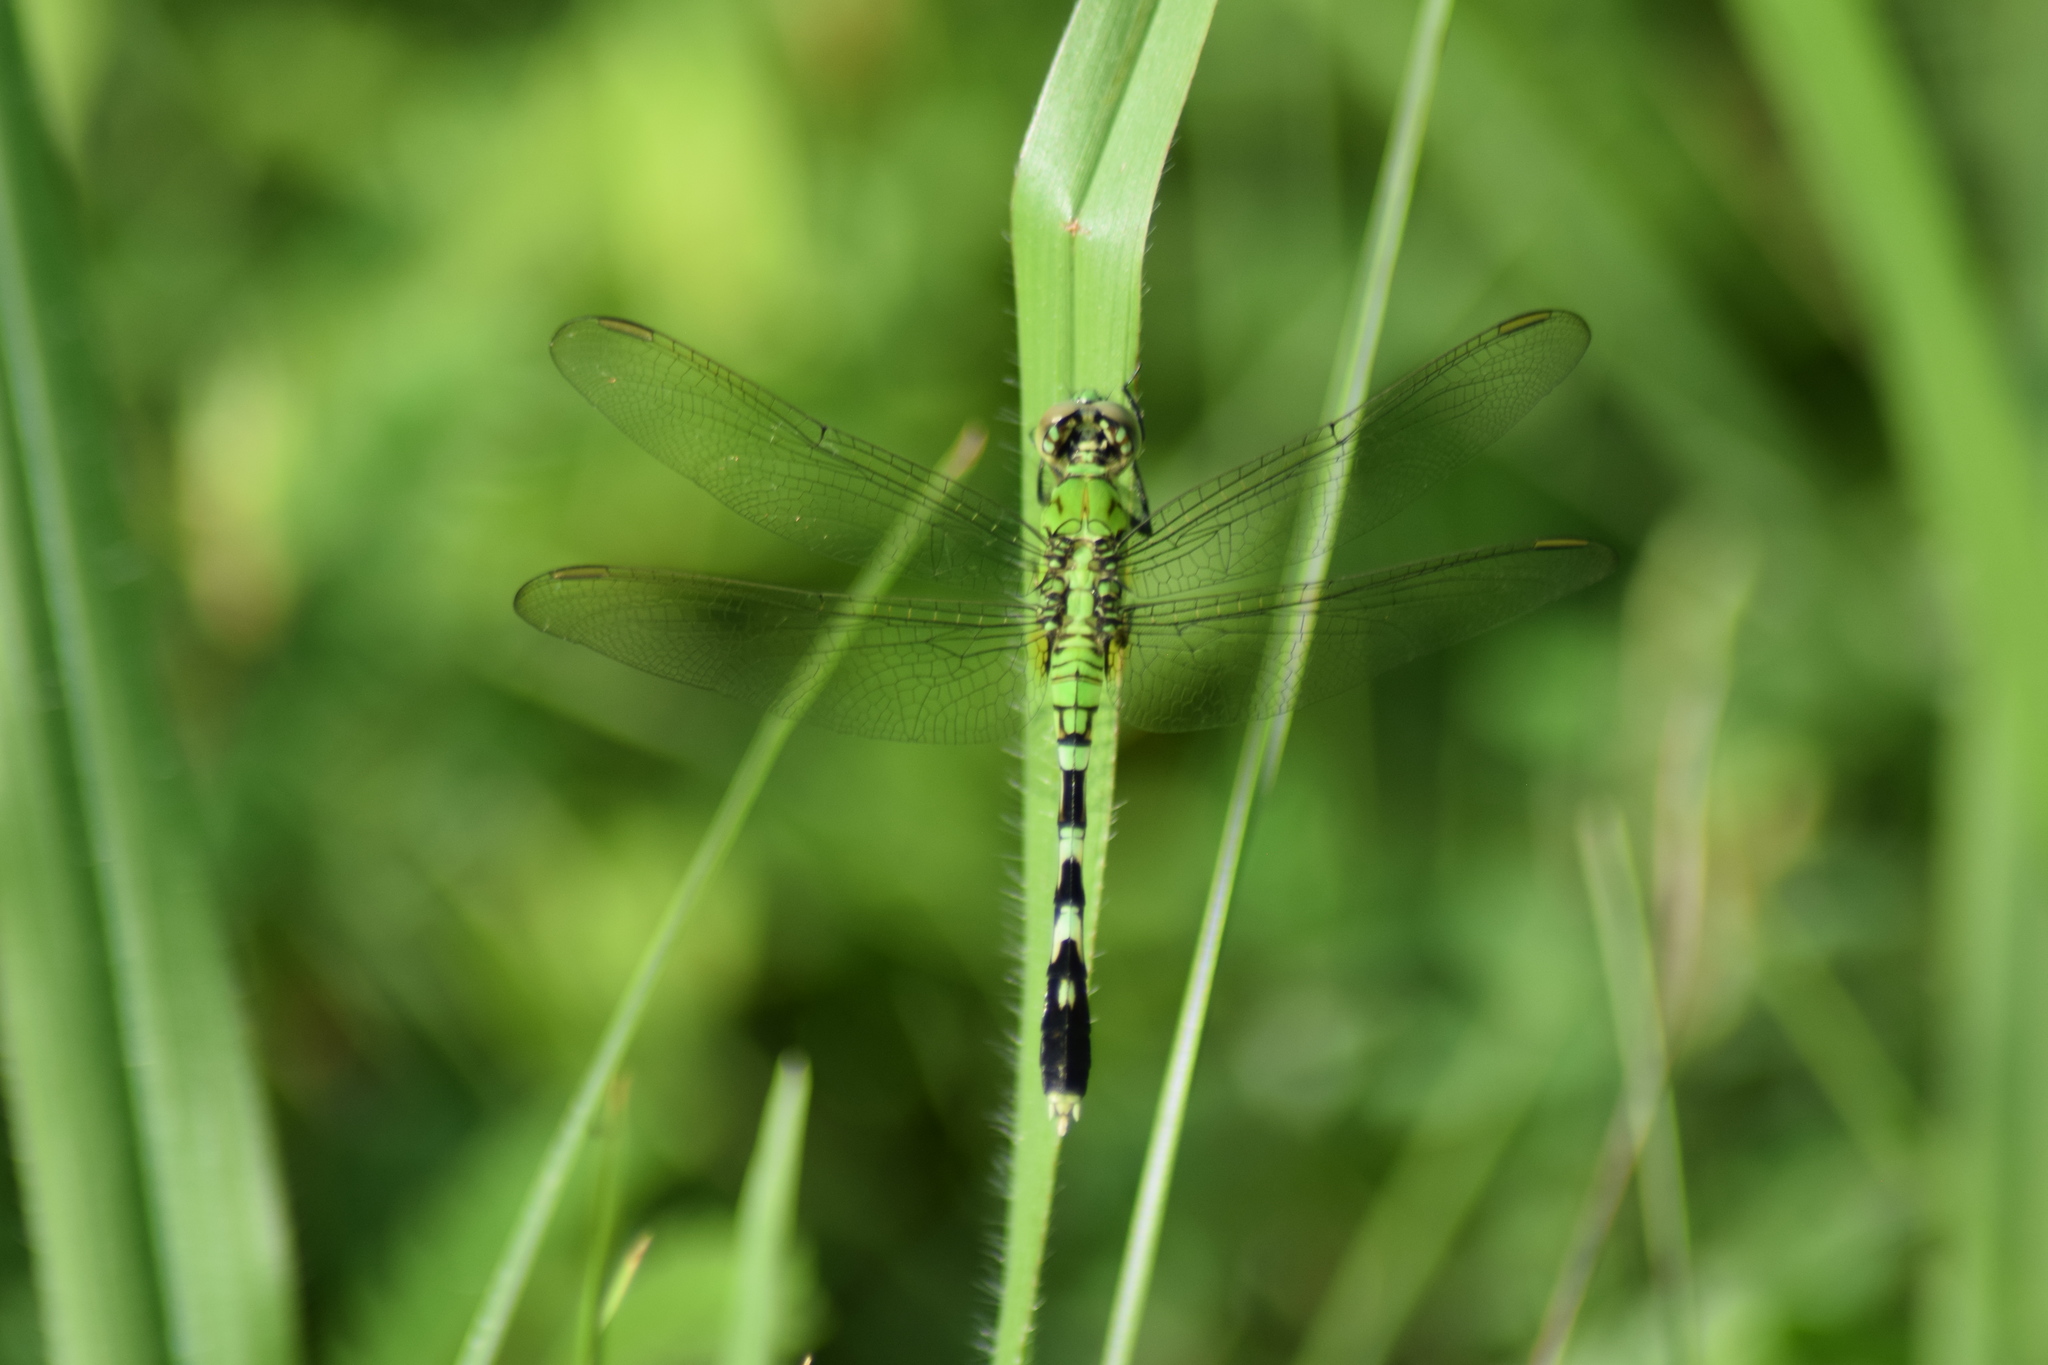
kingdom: Animalia
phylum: Arthropoda
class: Insecta
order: Odonata
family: Libellulidae
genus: Erythemis
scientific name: Erythemis simplicicollis
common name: Eastern pondhawk
